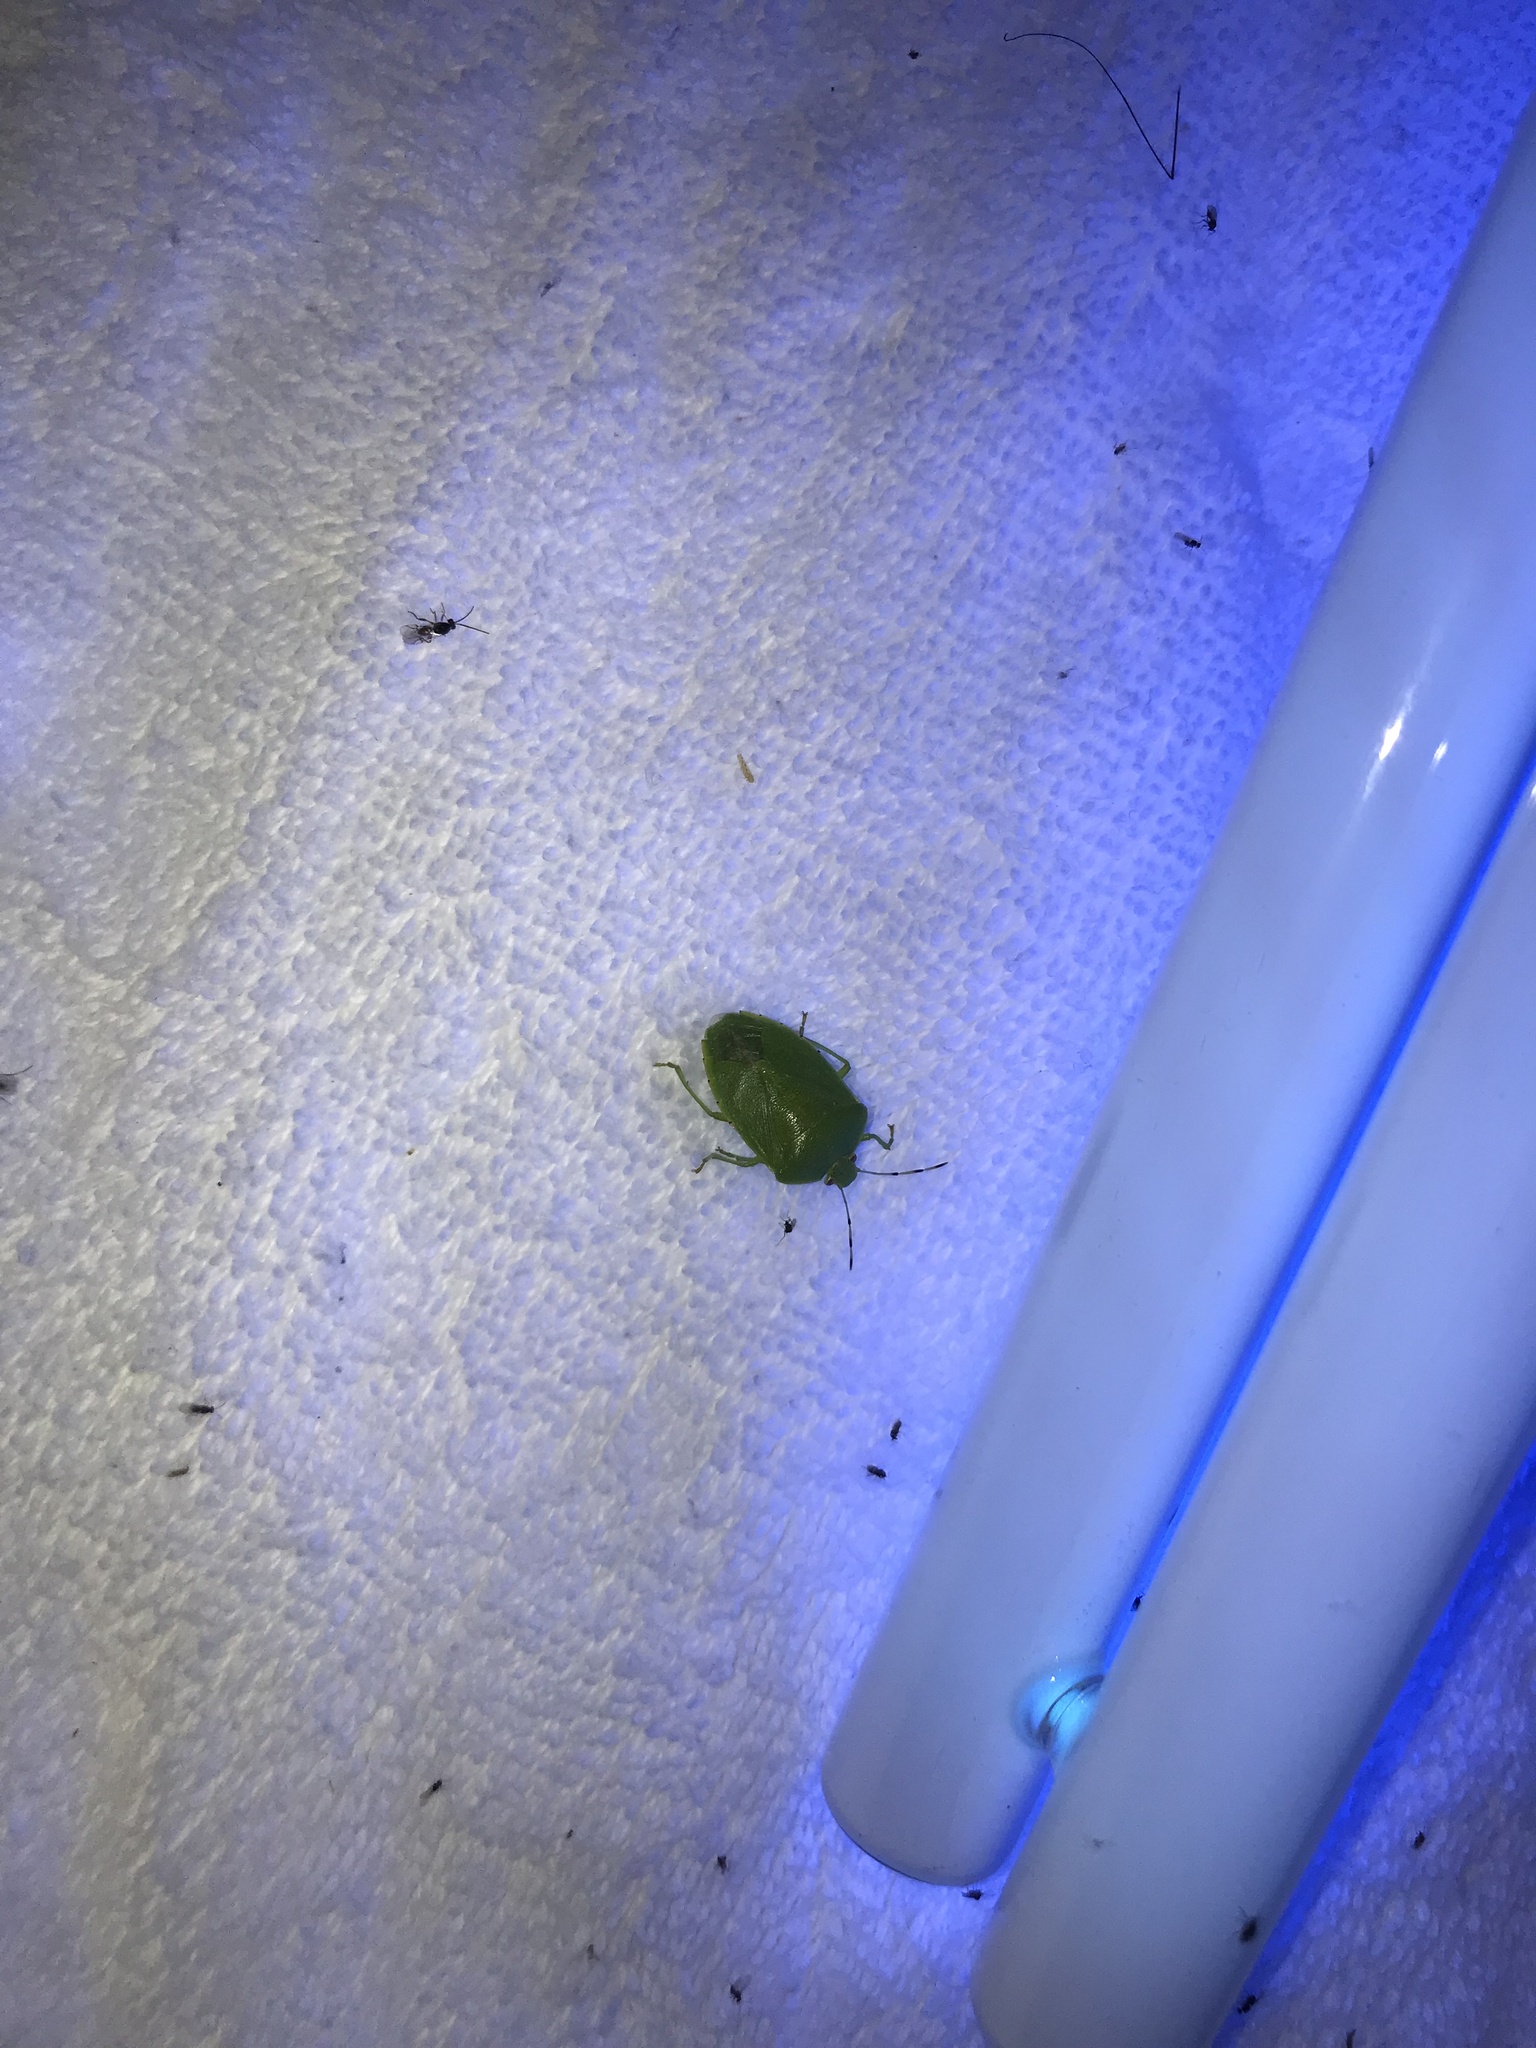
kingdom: Animalia
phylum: Arthropoda
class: Insecta
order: Hemiptera
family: Pentatomidae
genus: Chinavia
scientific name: Chinavia hilaris
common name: Green stink bug
